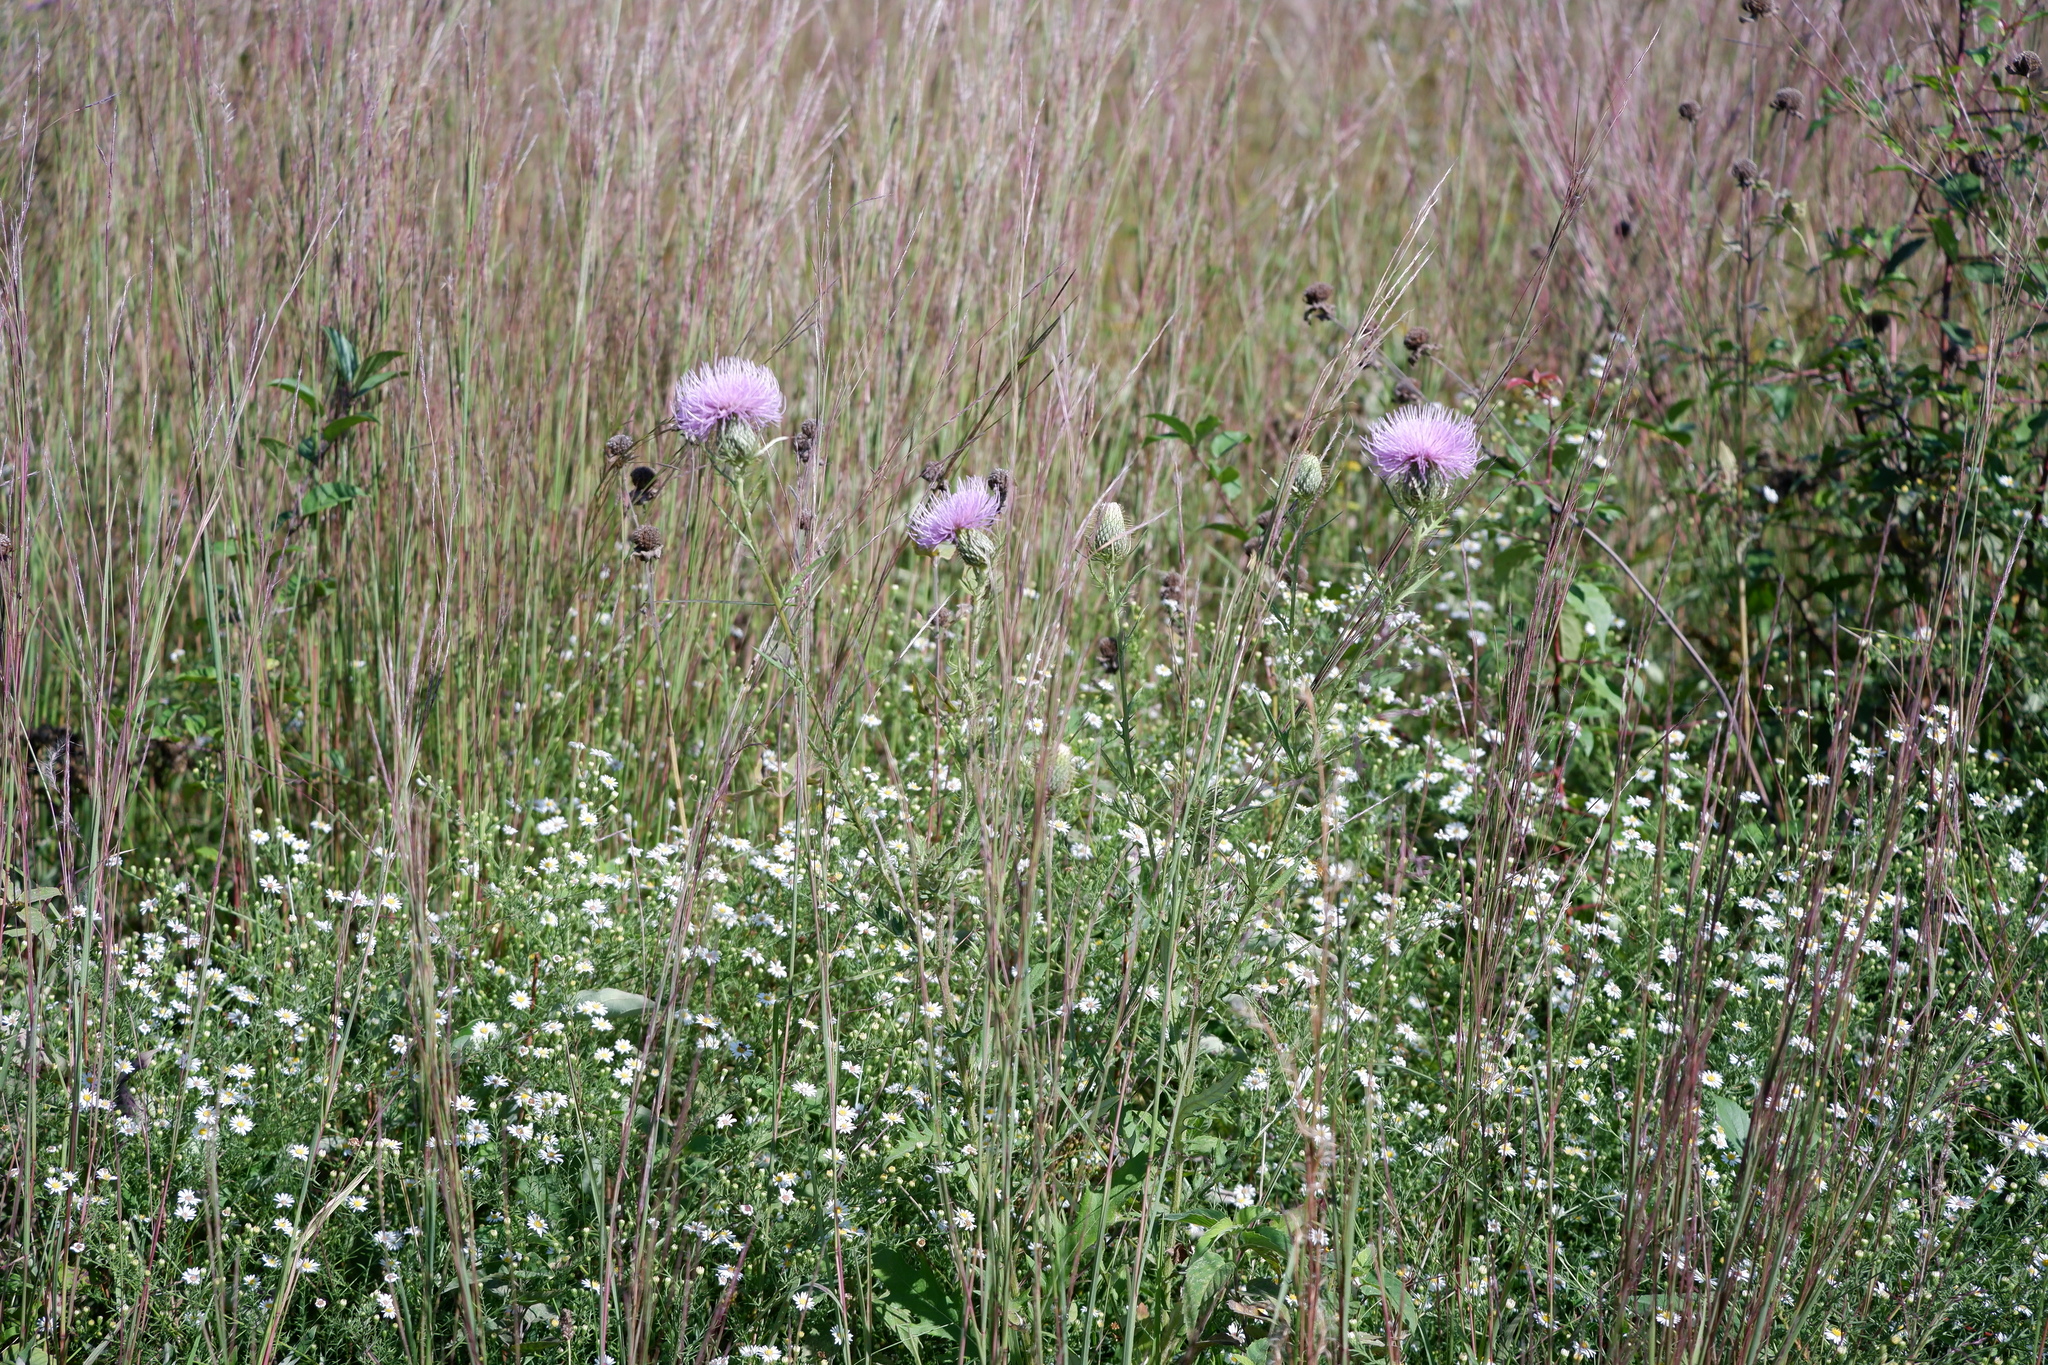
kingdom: Plantae
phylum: Tracheophyta
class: Magnoliopsida
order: Asterales
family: Asteraceae
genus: Cirsium
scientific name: Cirsium discolor
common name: Field thistle
